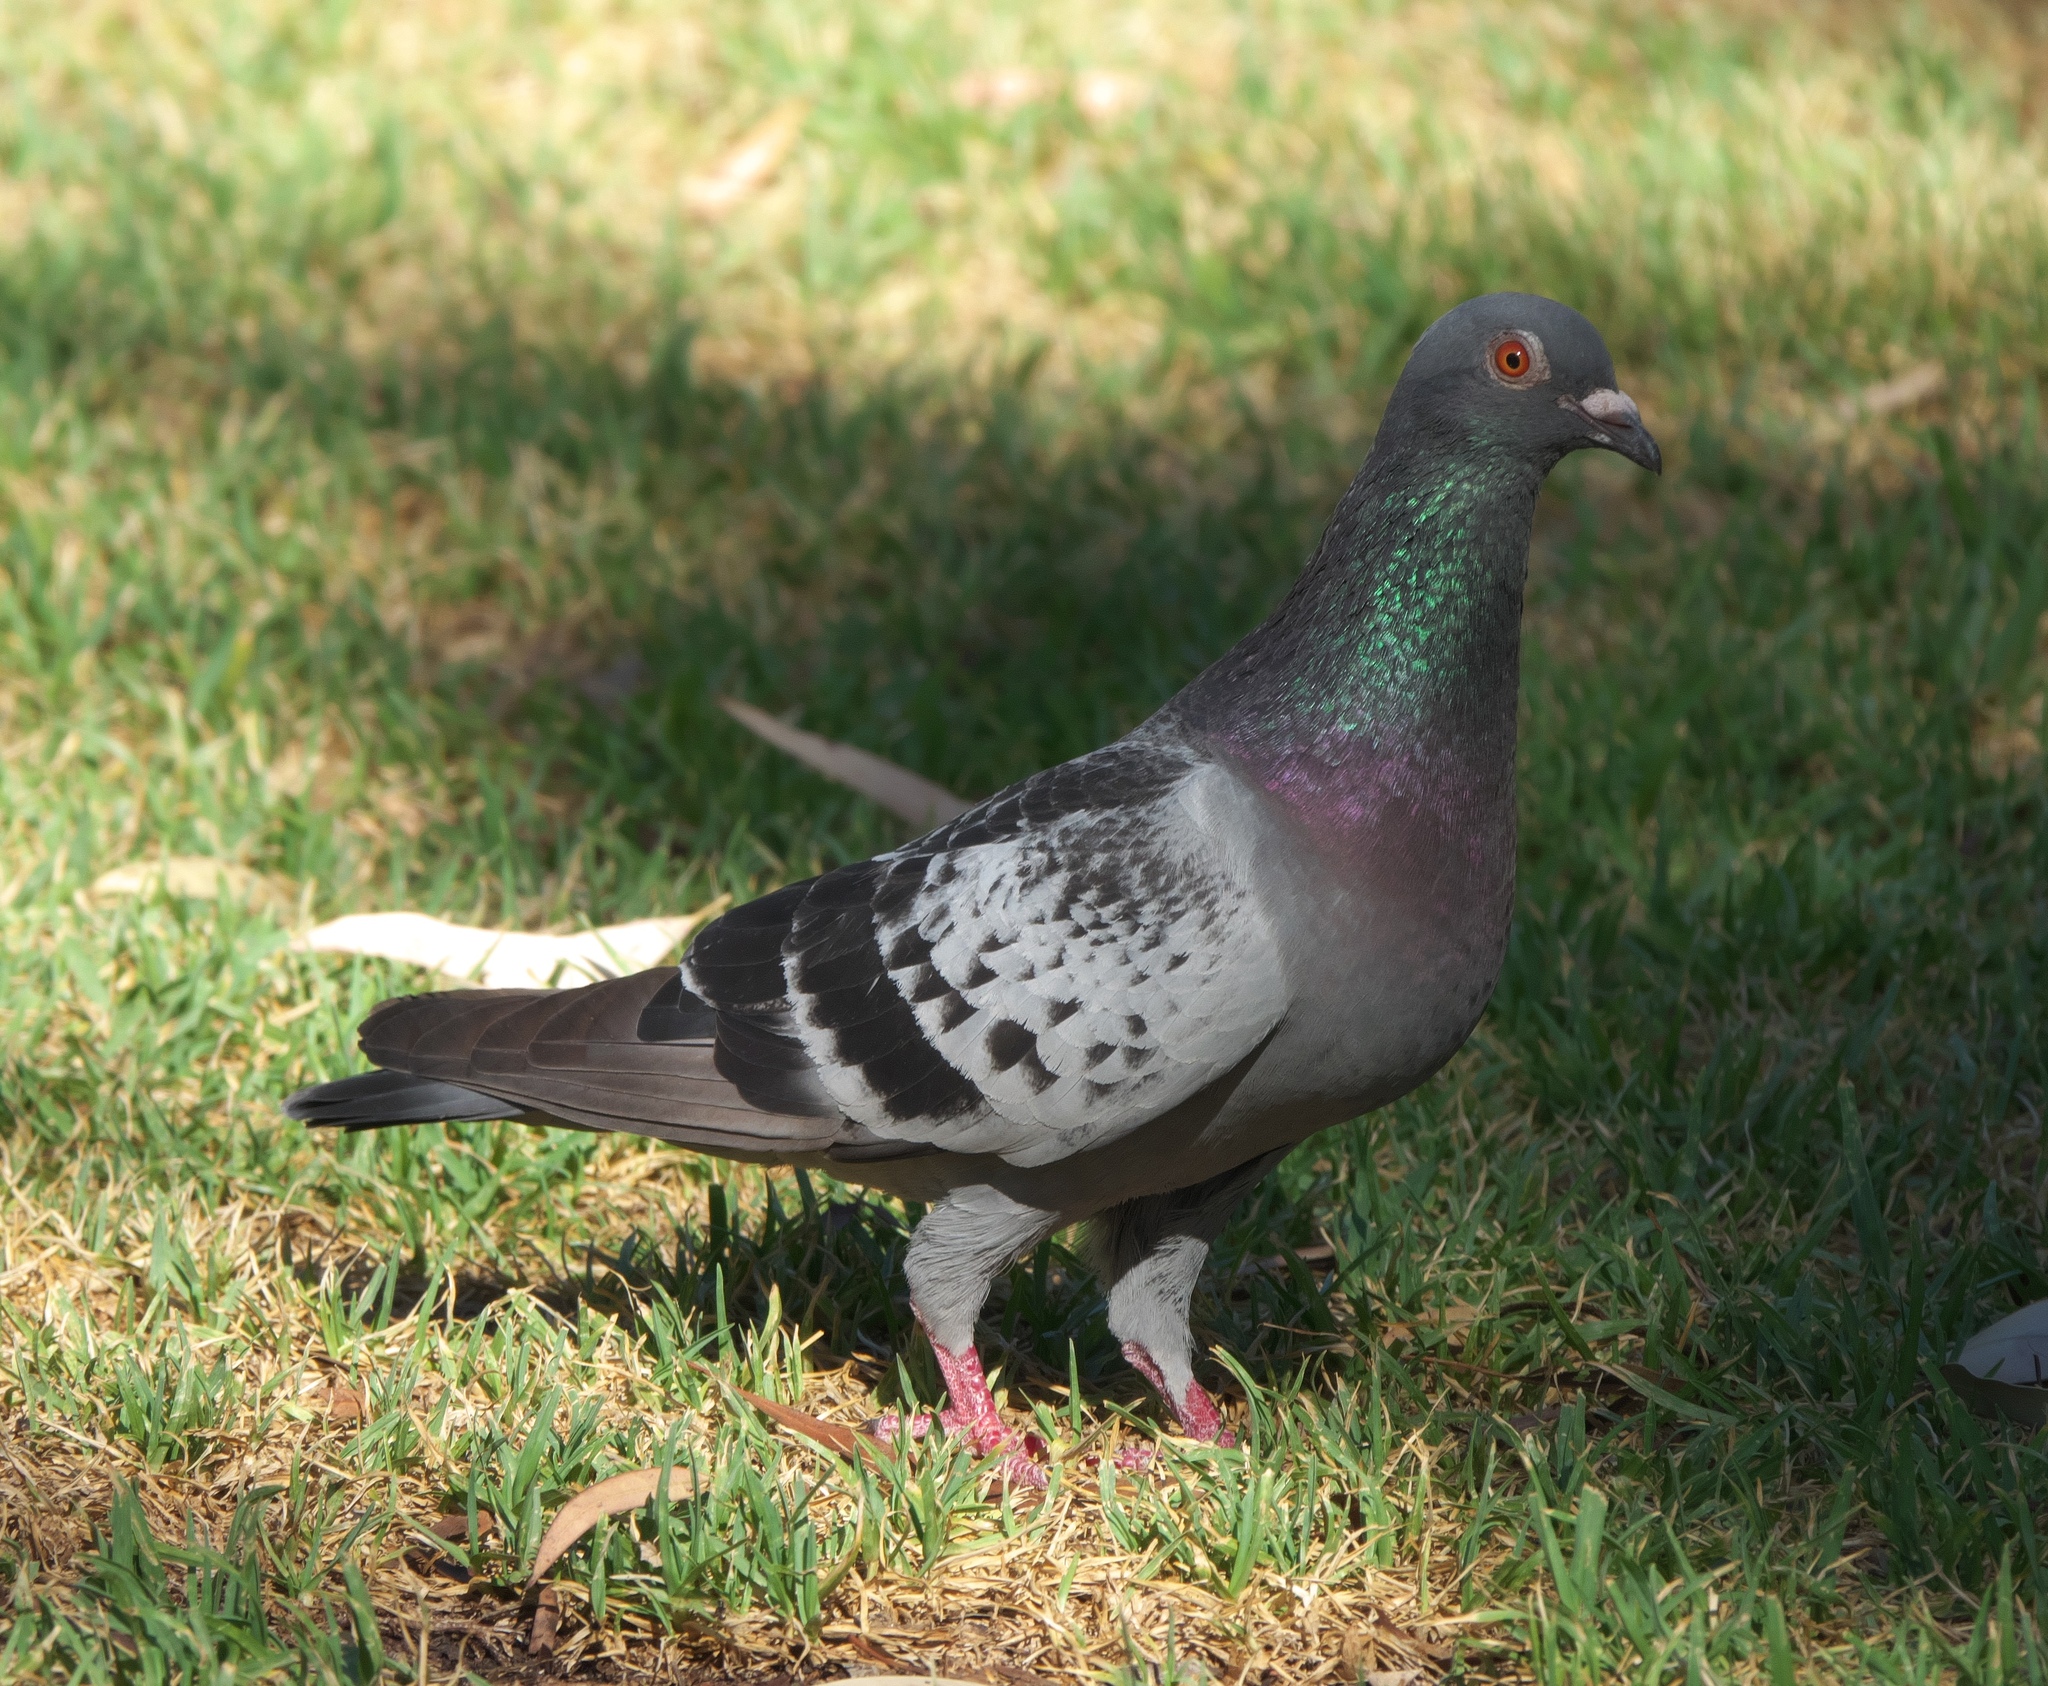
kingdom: Animalia
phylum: Chordata
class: Aves
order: Columbiformes
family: Columbidae
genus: Columba
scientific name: Columba livia
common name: Rock pigeon
